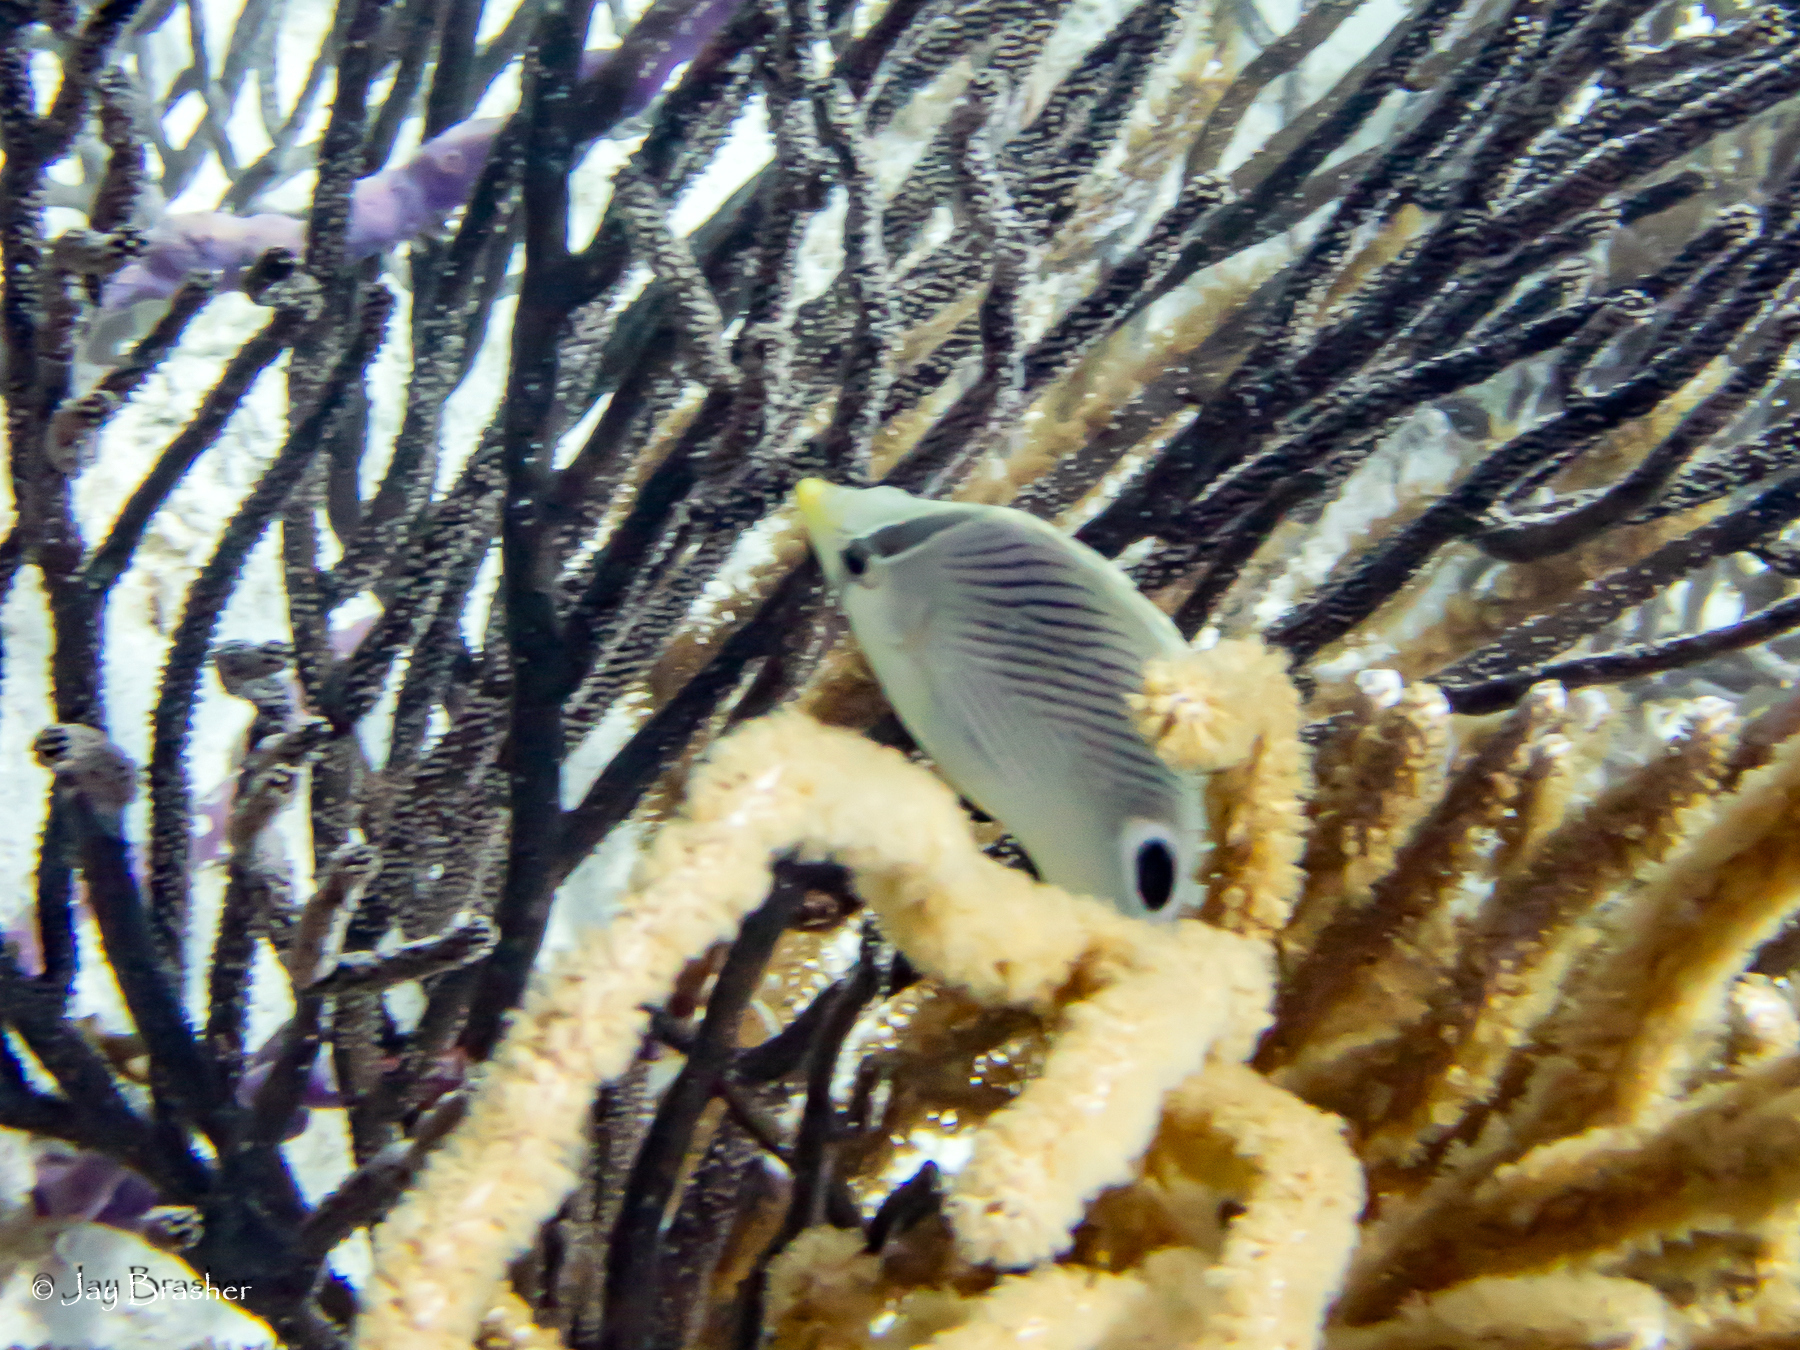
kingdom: Animalia
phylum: Chordata
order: Perciformes
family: Chaetodontidae
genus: Chaetodon
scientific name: Chaetodon capistratus
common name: Kete
